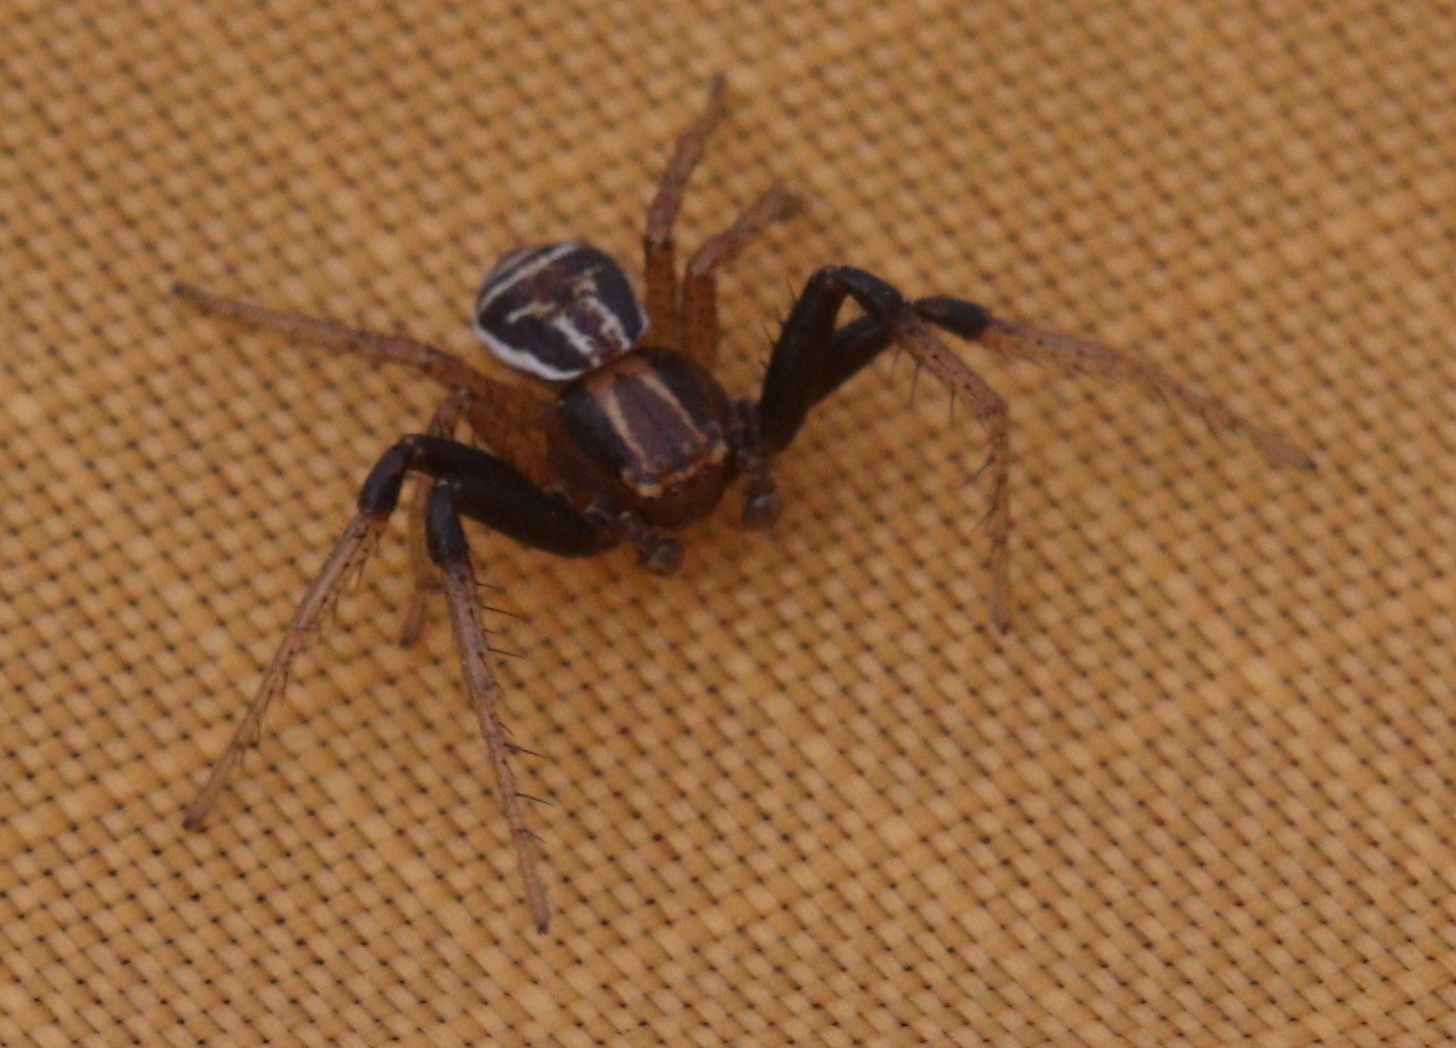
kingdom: Animalia
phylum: Arthropoda
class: Arachnida
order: Araneae
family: Thomisidae
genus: Xysticus
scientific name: Xysticus ulmi
